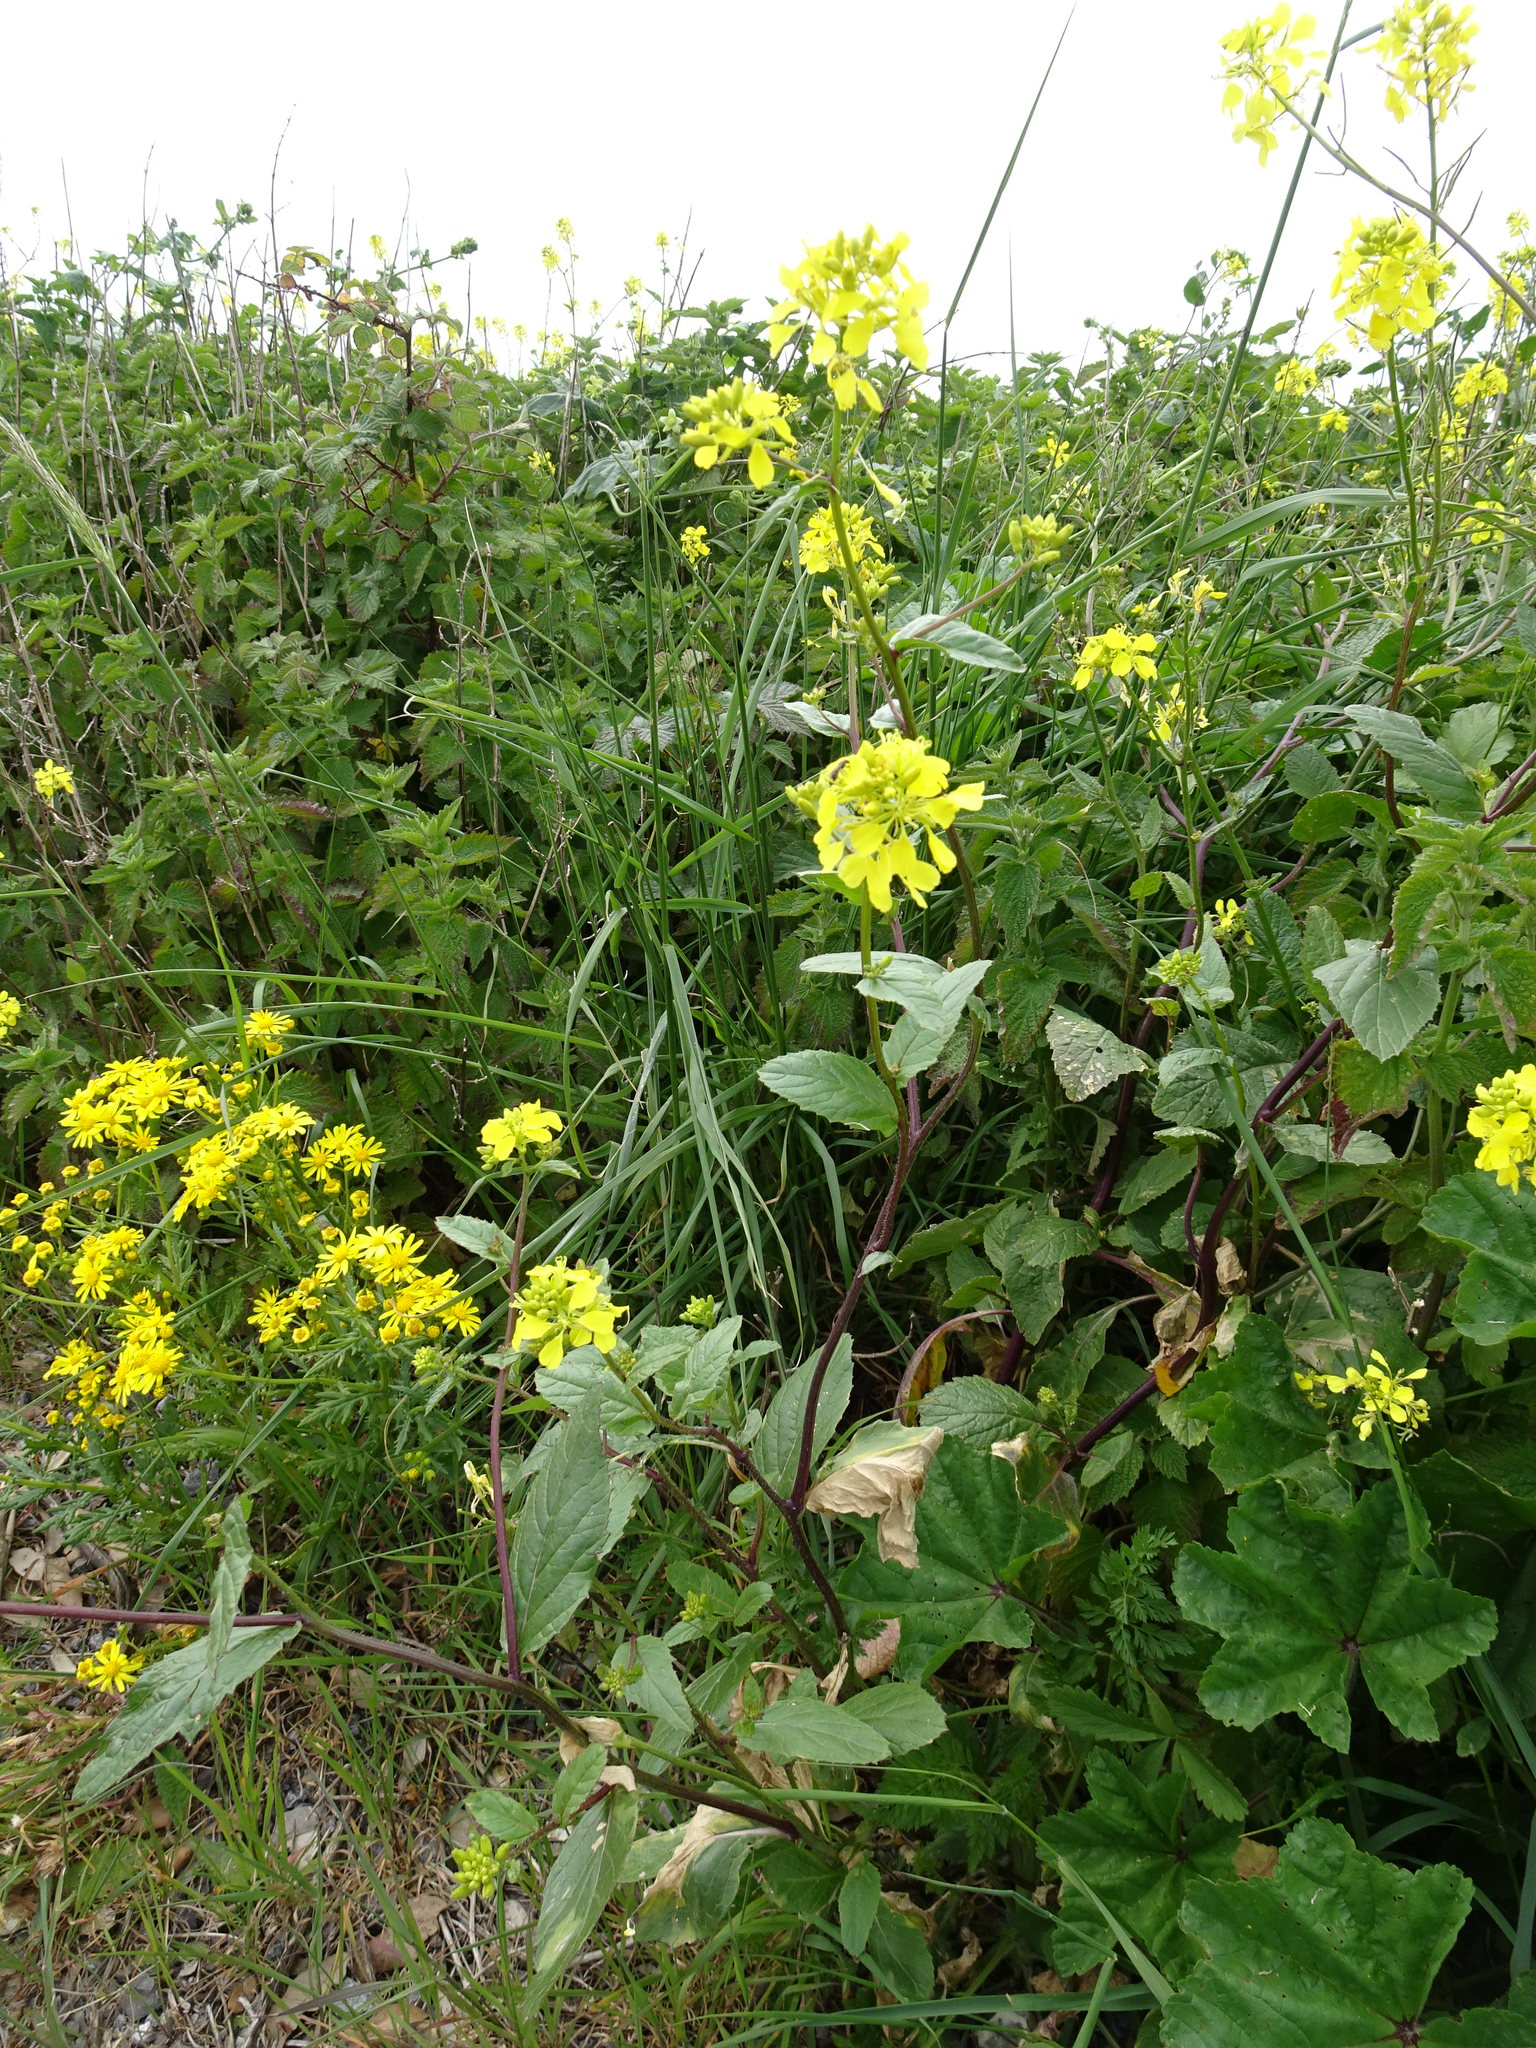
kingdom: Plantae
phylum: Tracheophyta
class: Magnoliopsida
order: Brassicales
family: Brassicaceae
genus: Sinapis
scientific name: Sinapis arvensis
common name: Charlock
